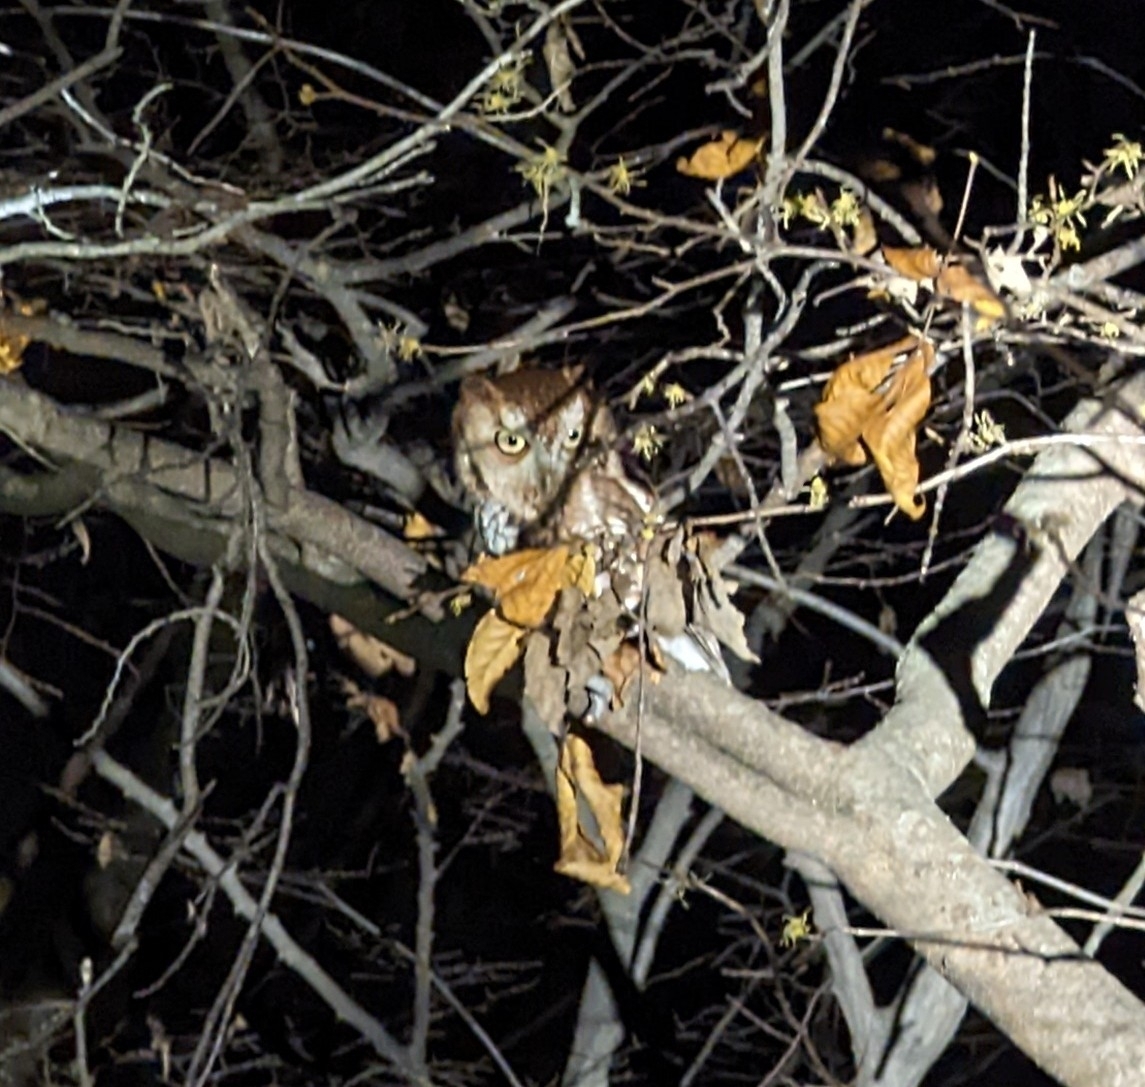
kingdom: Animalia
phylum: Chordata
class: Aves
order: Strigiformes
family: Strigidae
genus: Megascops
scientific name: Megascops asio
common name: Eastern screech-owl
